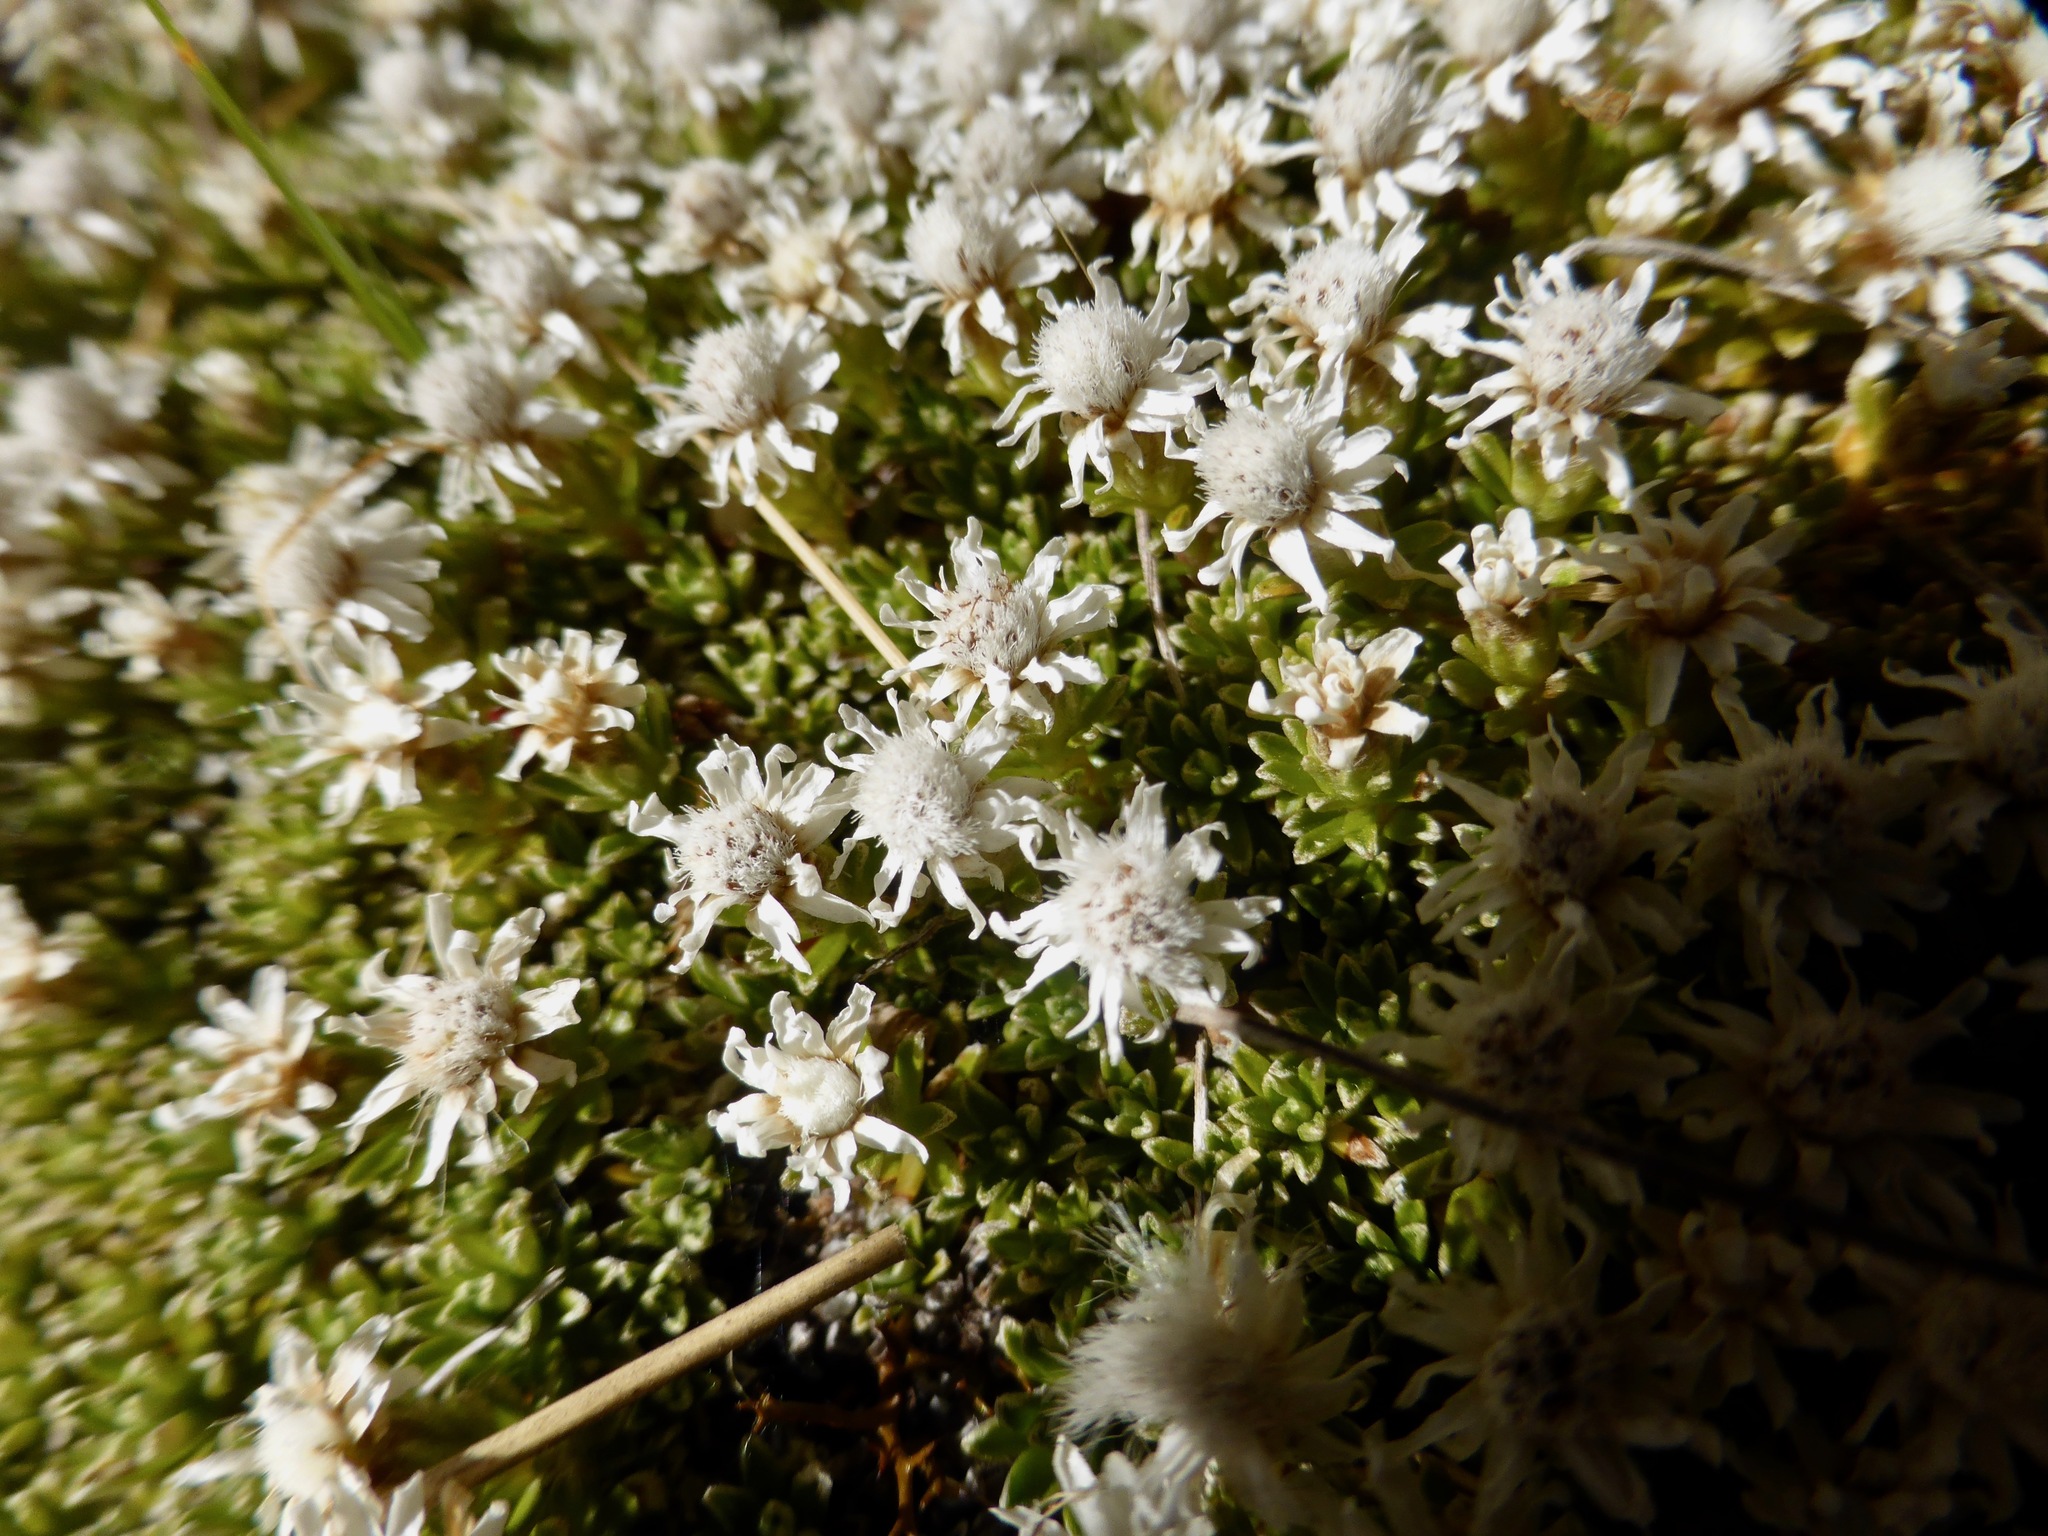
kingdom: Plantae
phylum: Tracheophyta
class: Magnoliopsida
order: Asterales
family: Asteraceae
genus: Raoulia
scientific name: Raoulia subsericea
